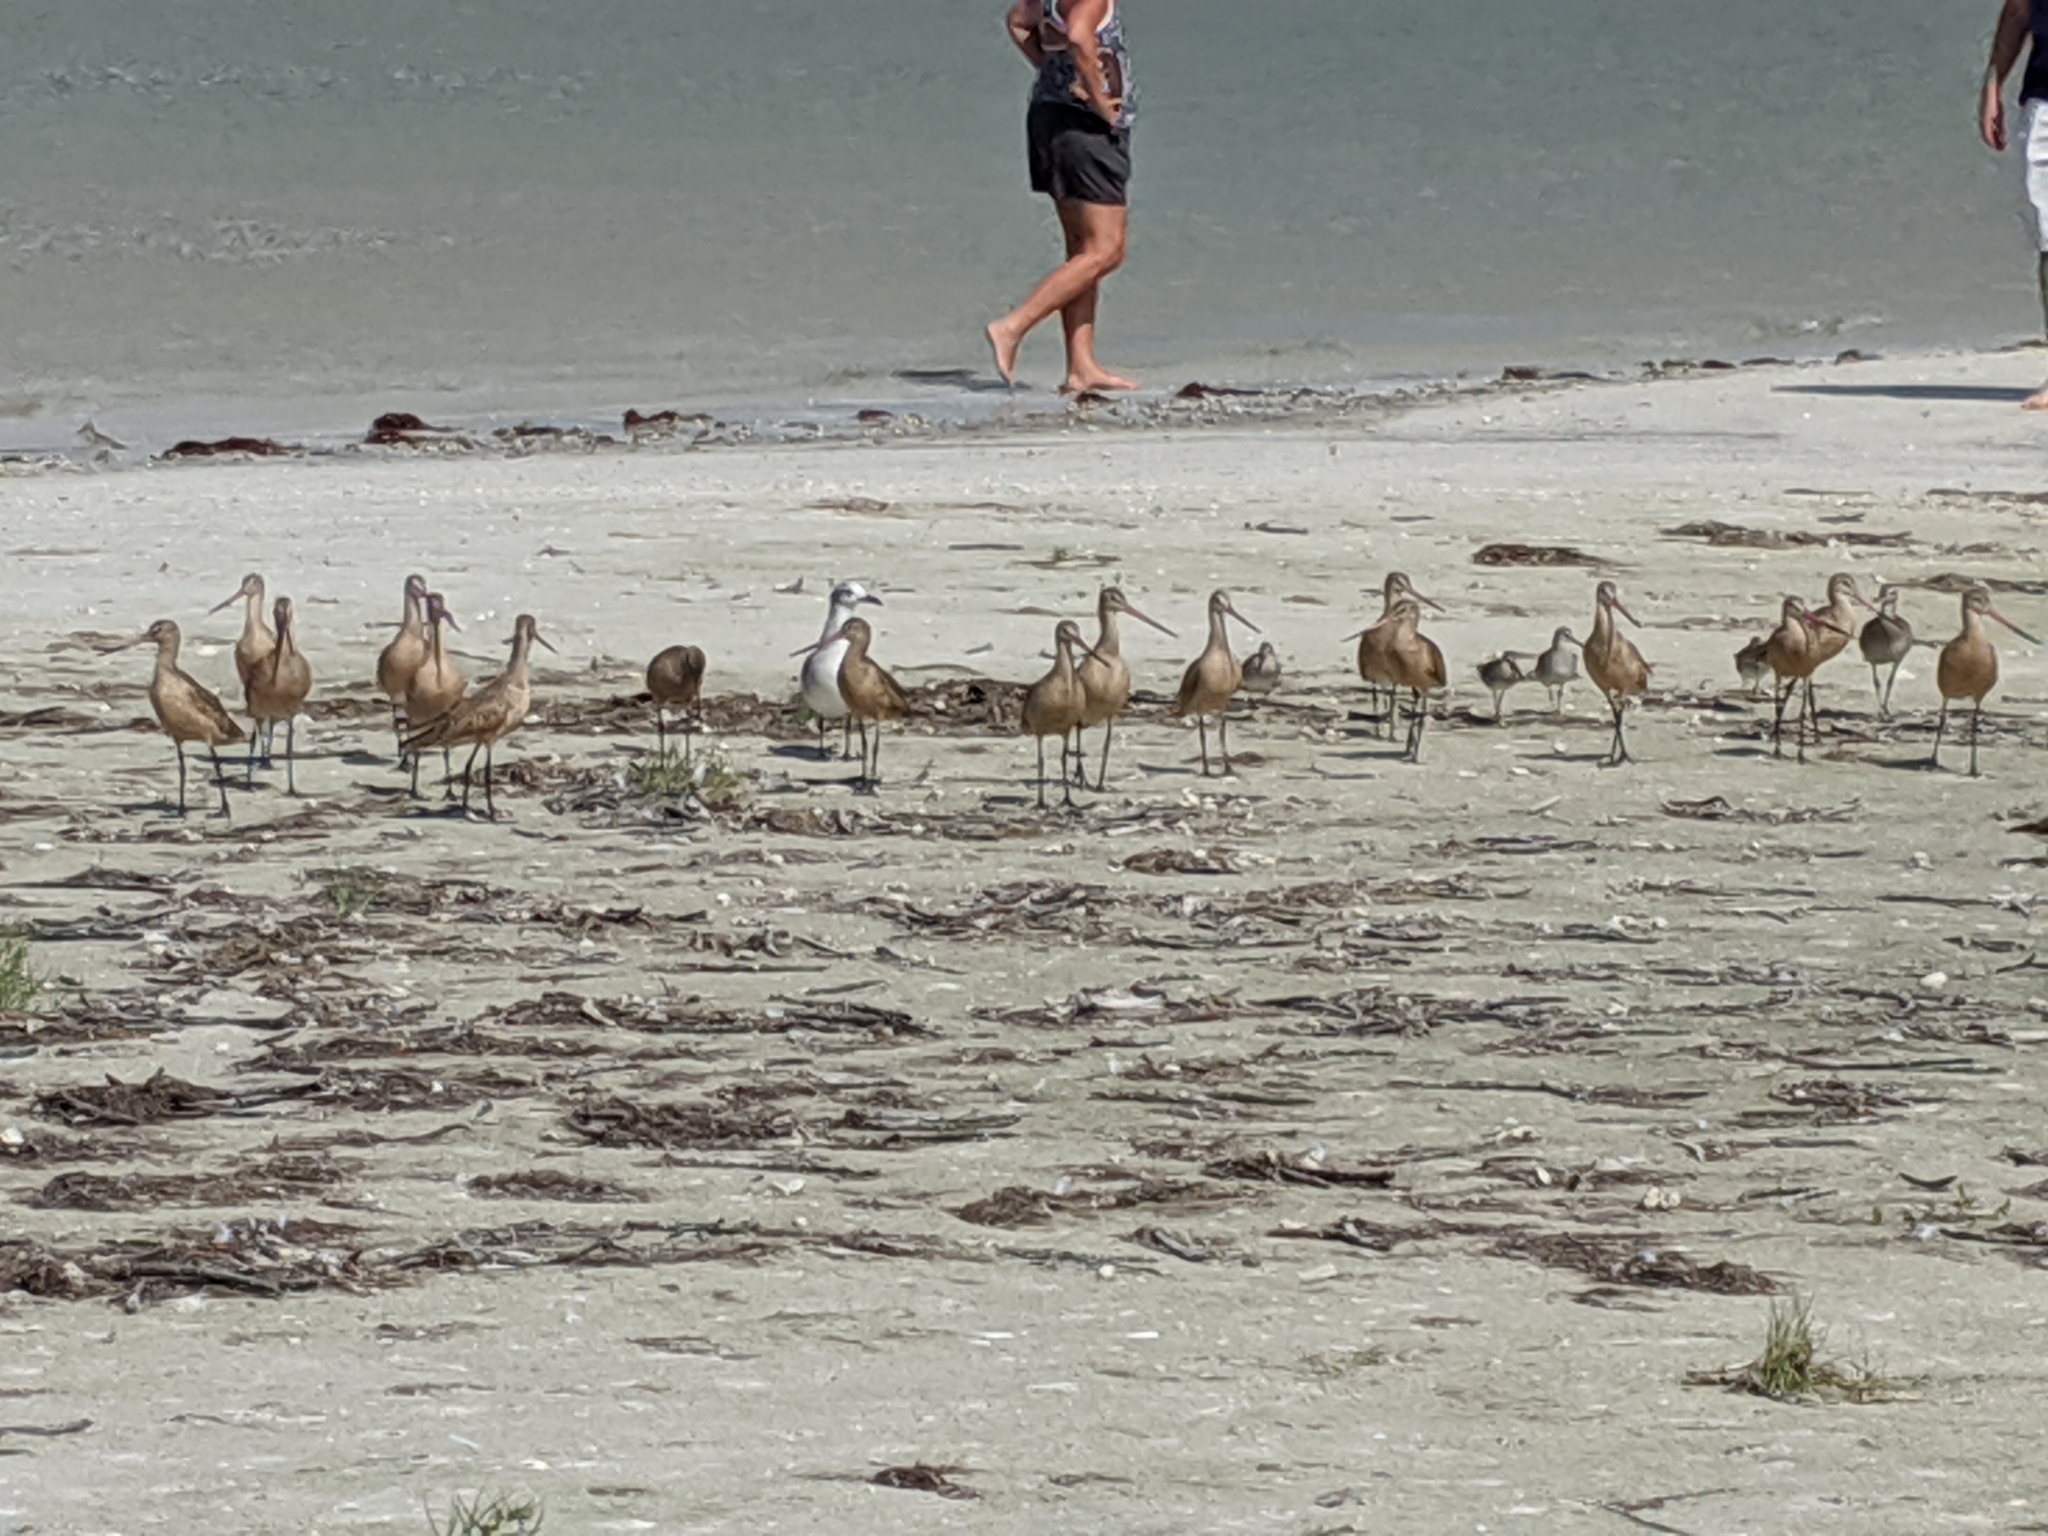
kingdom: Animalia
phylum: Chordata
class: Aves
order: Charadriiformes
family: Scolopacidae
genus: Limosa
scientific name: Limosa fedoa
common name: Marbled godwit
